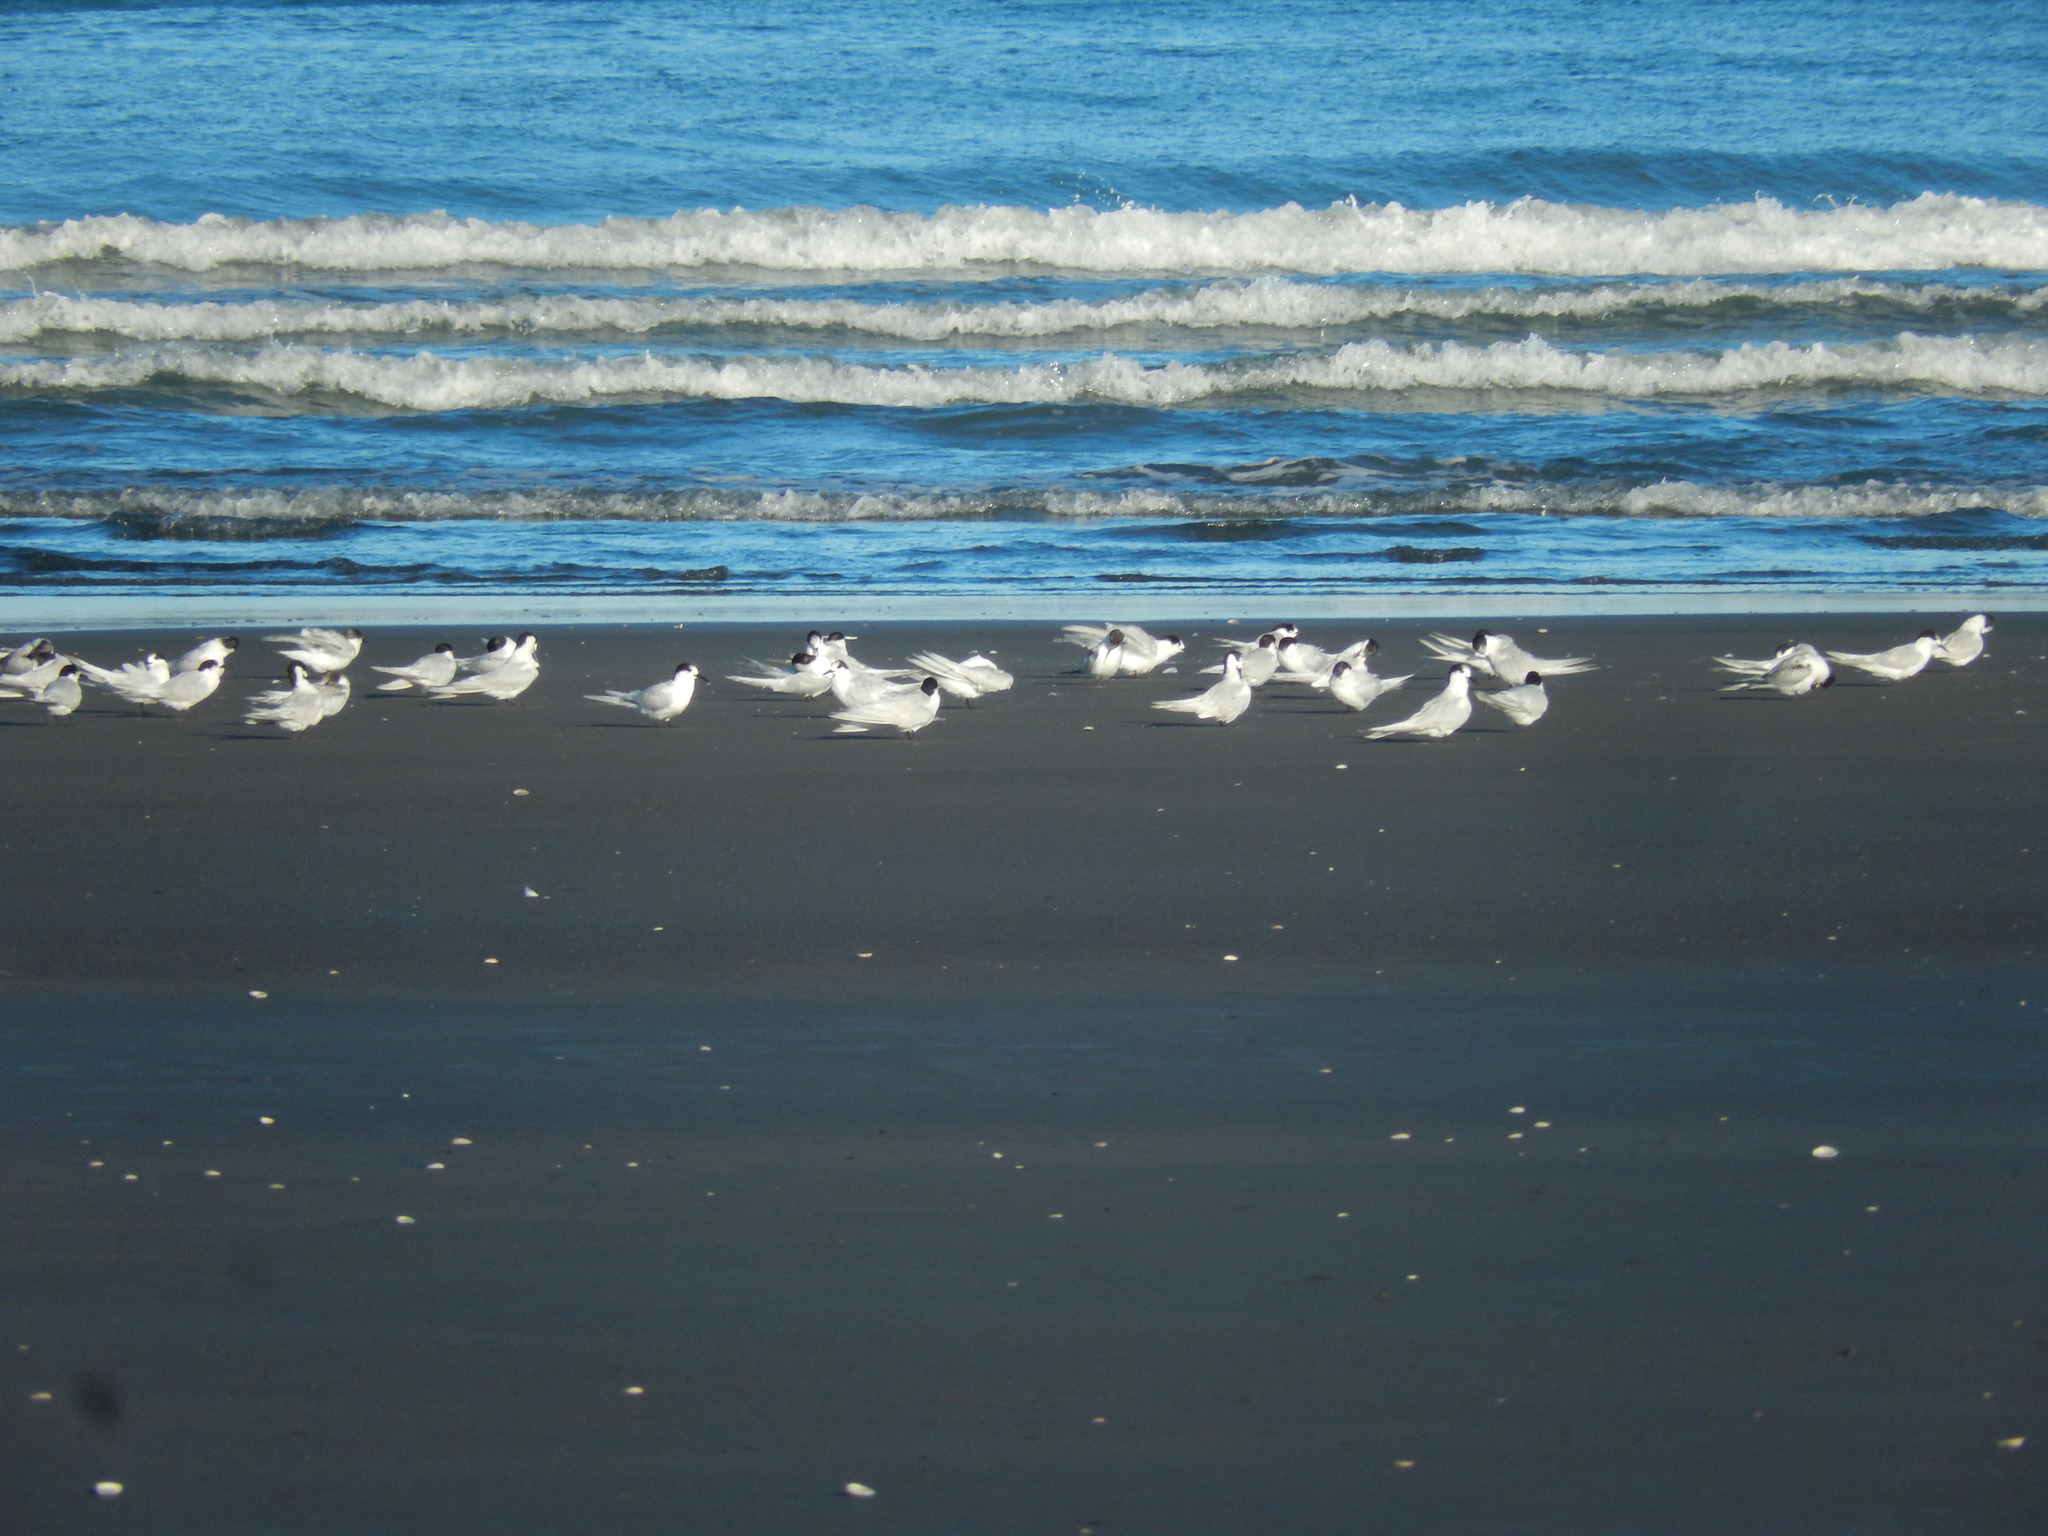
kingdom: Animalia
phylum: Chordata
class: Aves
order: Charadriiformes
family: Laridae
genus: Sterna
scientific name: Sterna striata
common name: White-fronted tern
